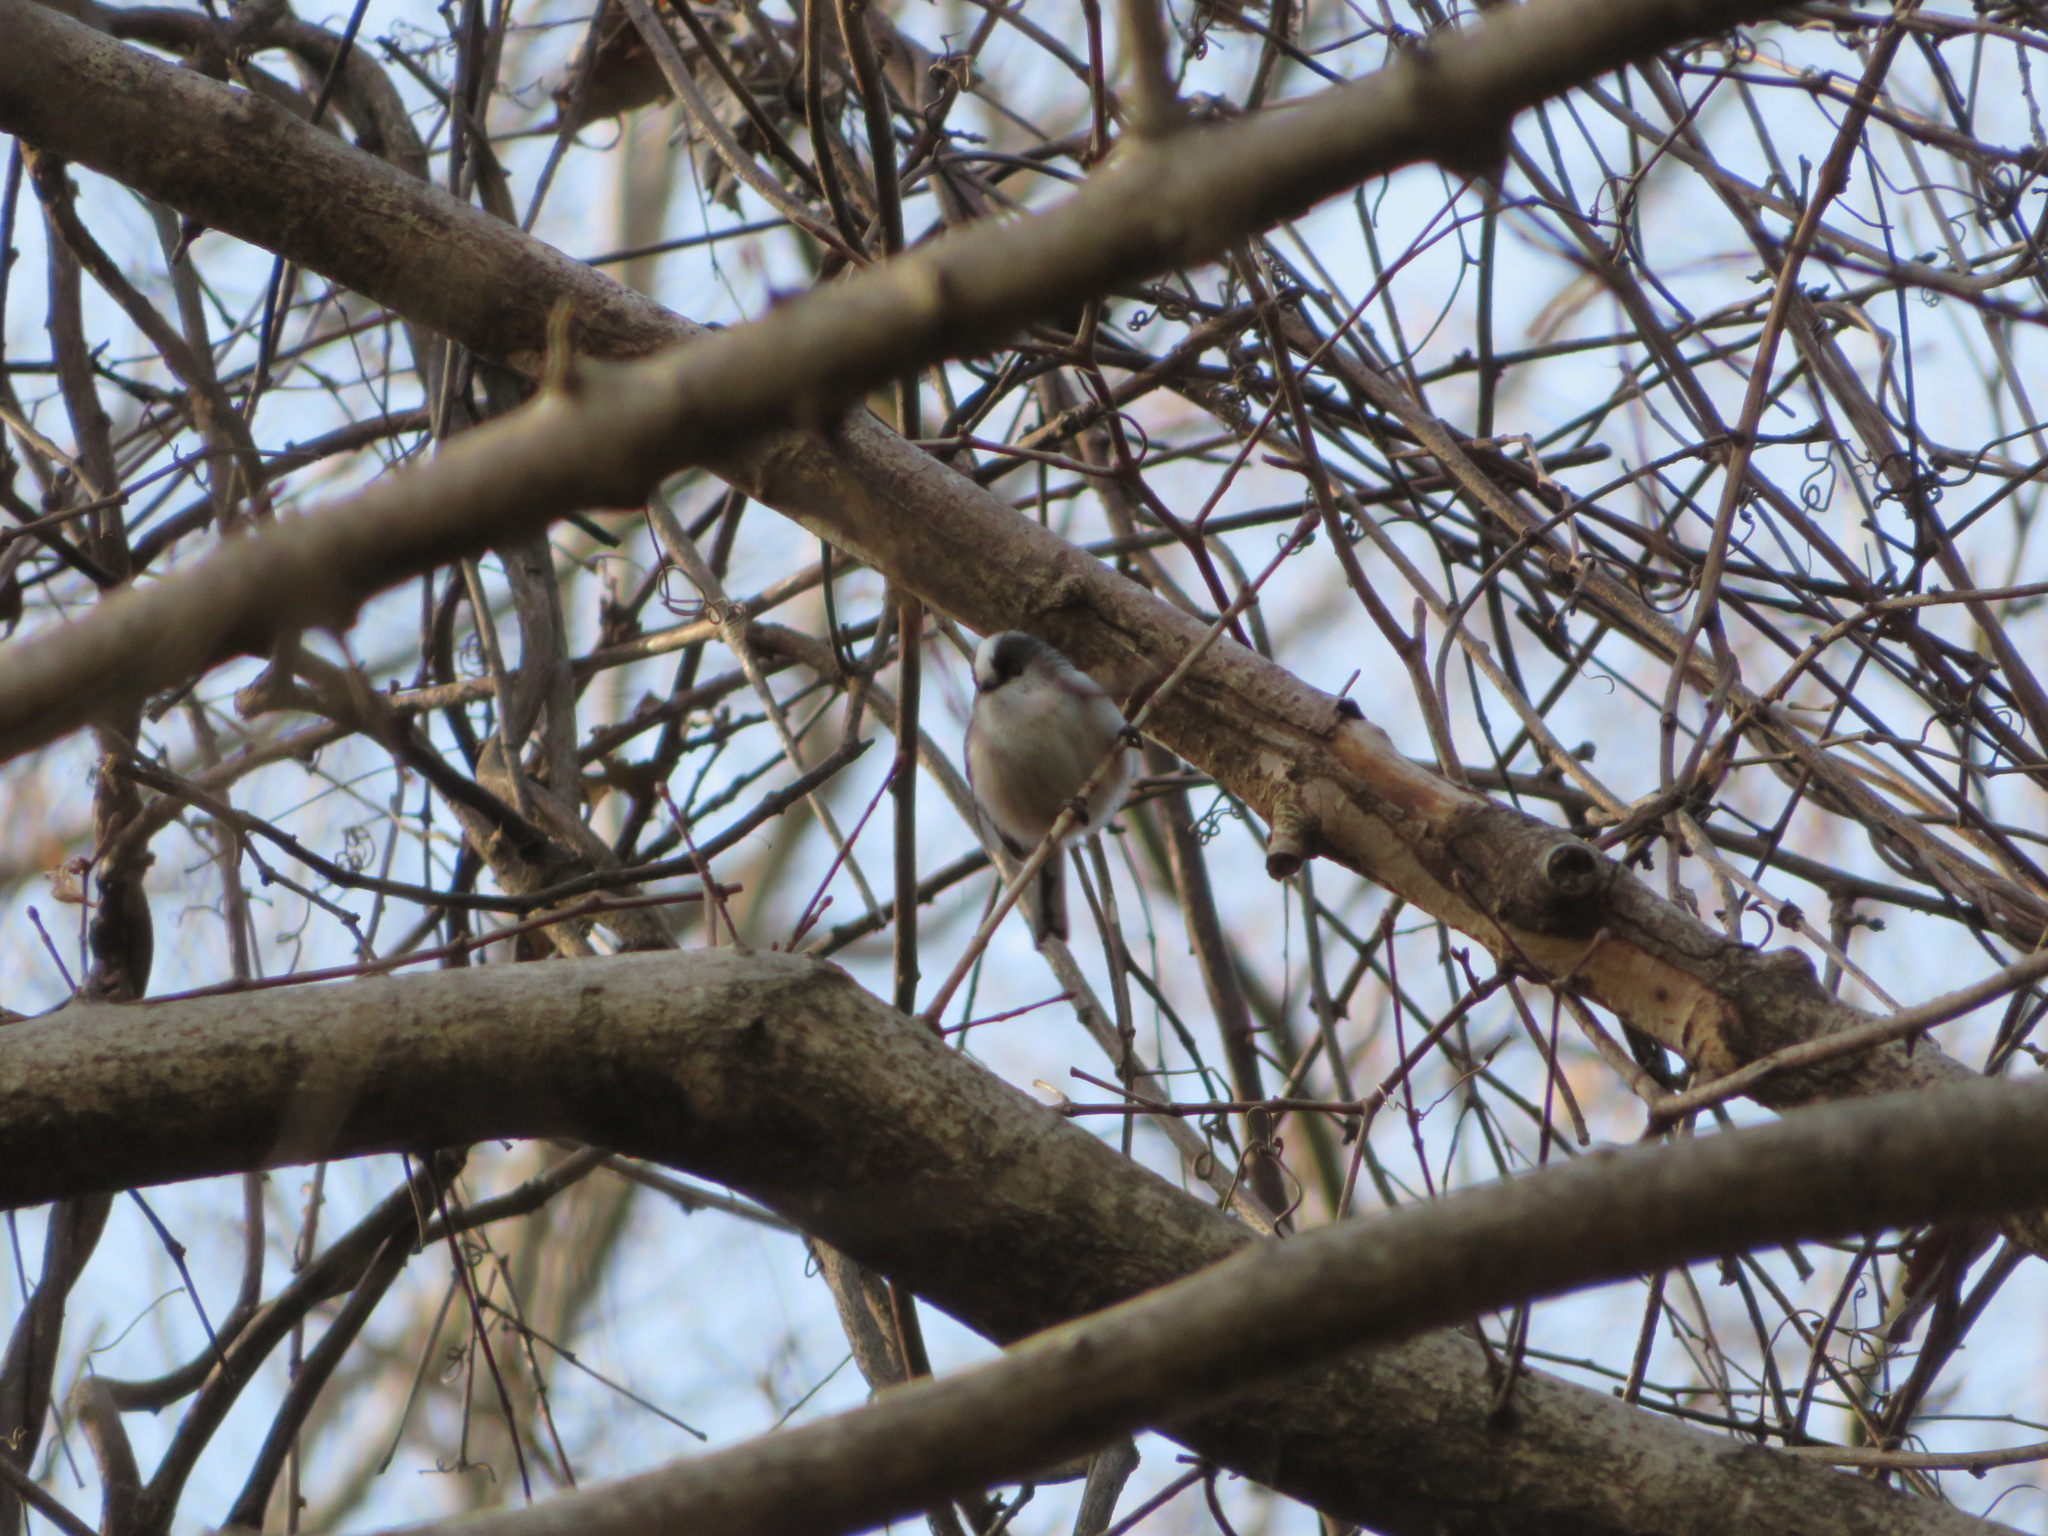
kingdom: Animalia
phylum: Chordata
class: Aves
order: Passeriformes
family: Aegithalidae
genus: Aegithalos
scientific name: Aegithalos caudatus
